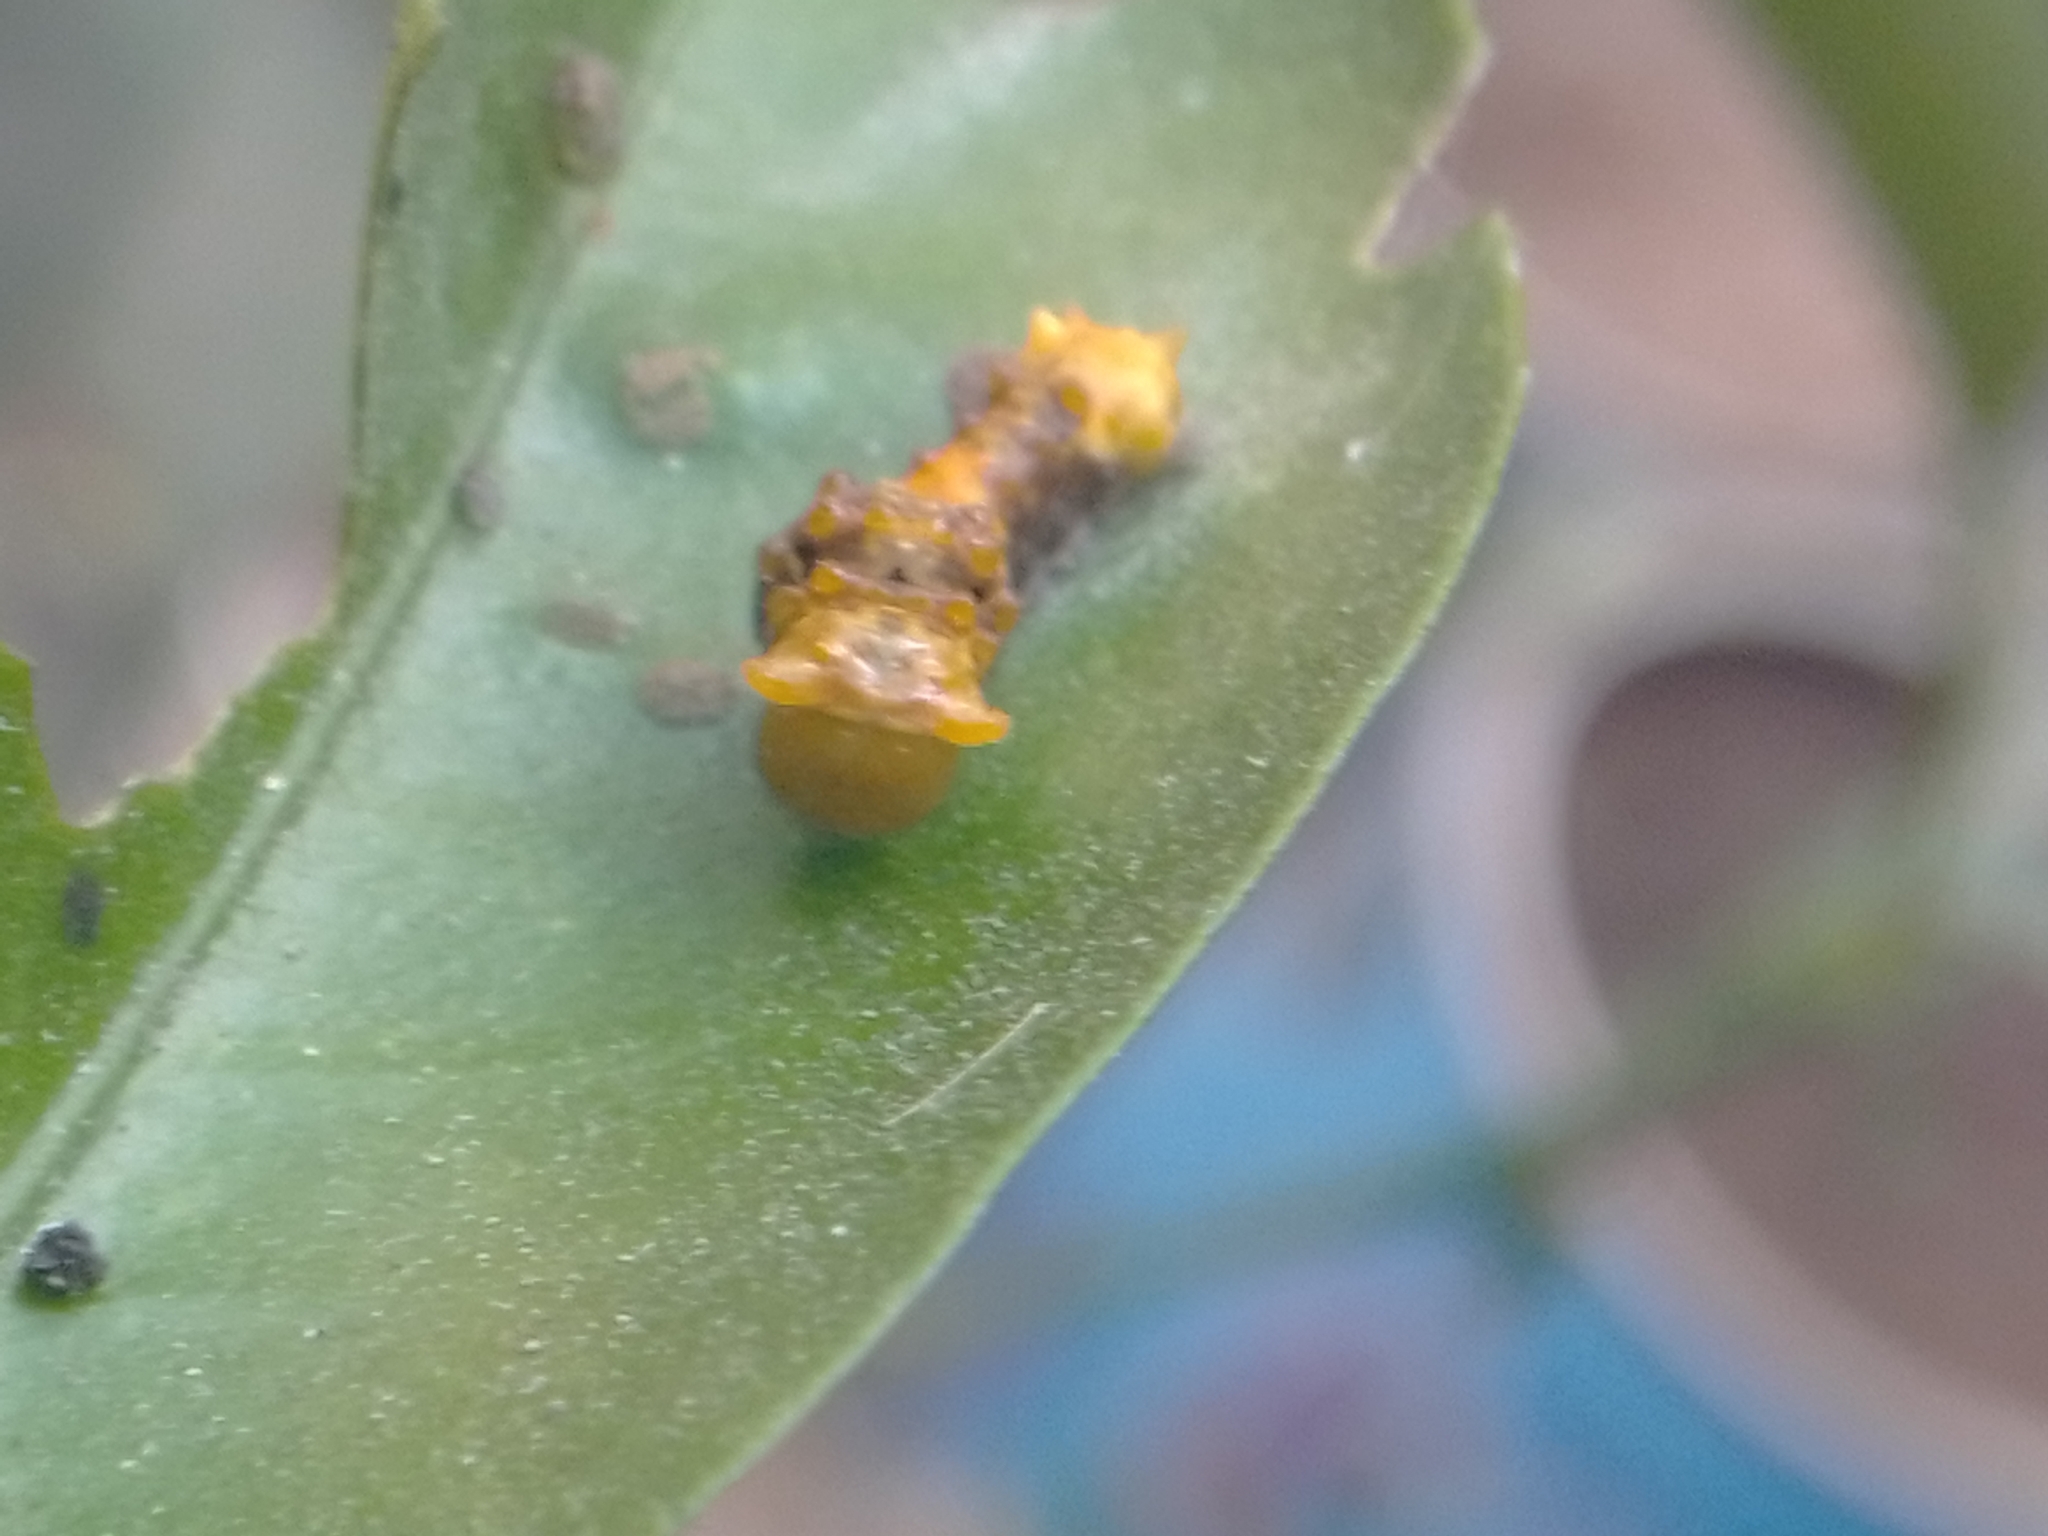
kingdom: Animalia
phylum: Arthropoda
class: Insecta
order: Lepidoptera
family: Papilionidae
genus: Papilio
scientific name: Papilio rumiko
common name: Western giant swallowtail
